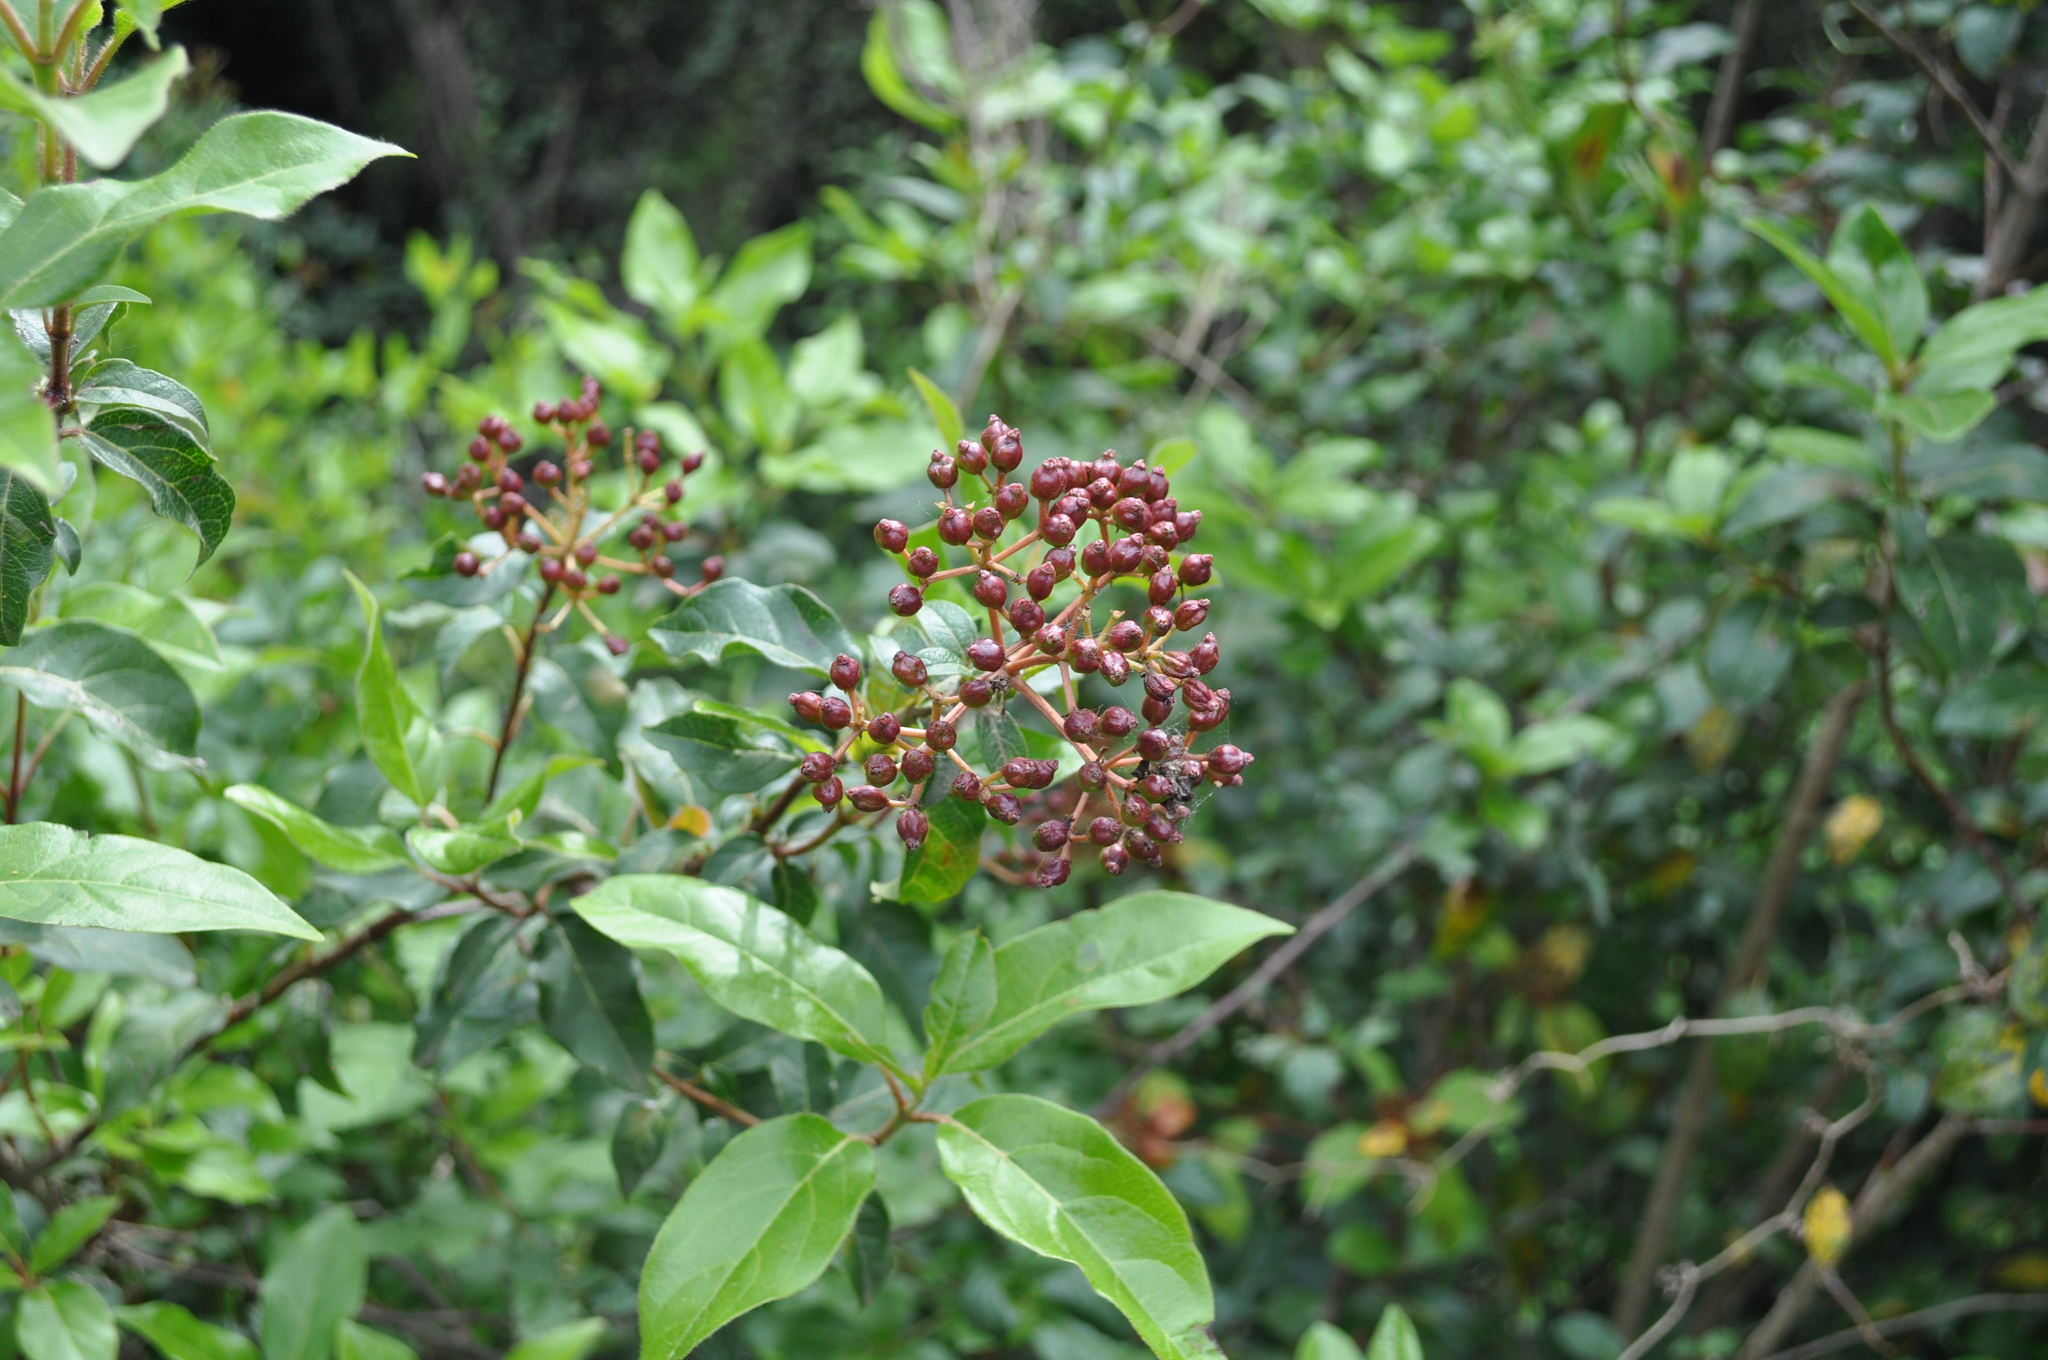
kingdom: Plantae
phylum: Tracheophyta
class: Magnoliopsida
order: Dipsacales
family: Viburnaceae
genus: Viburnum
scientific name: Viburnum tinus
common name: Laurustinus
